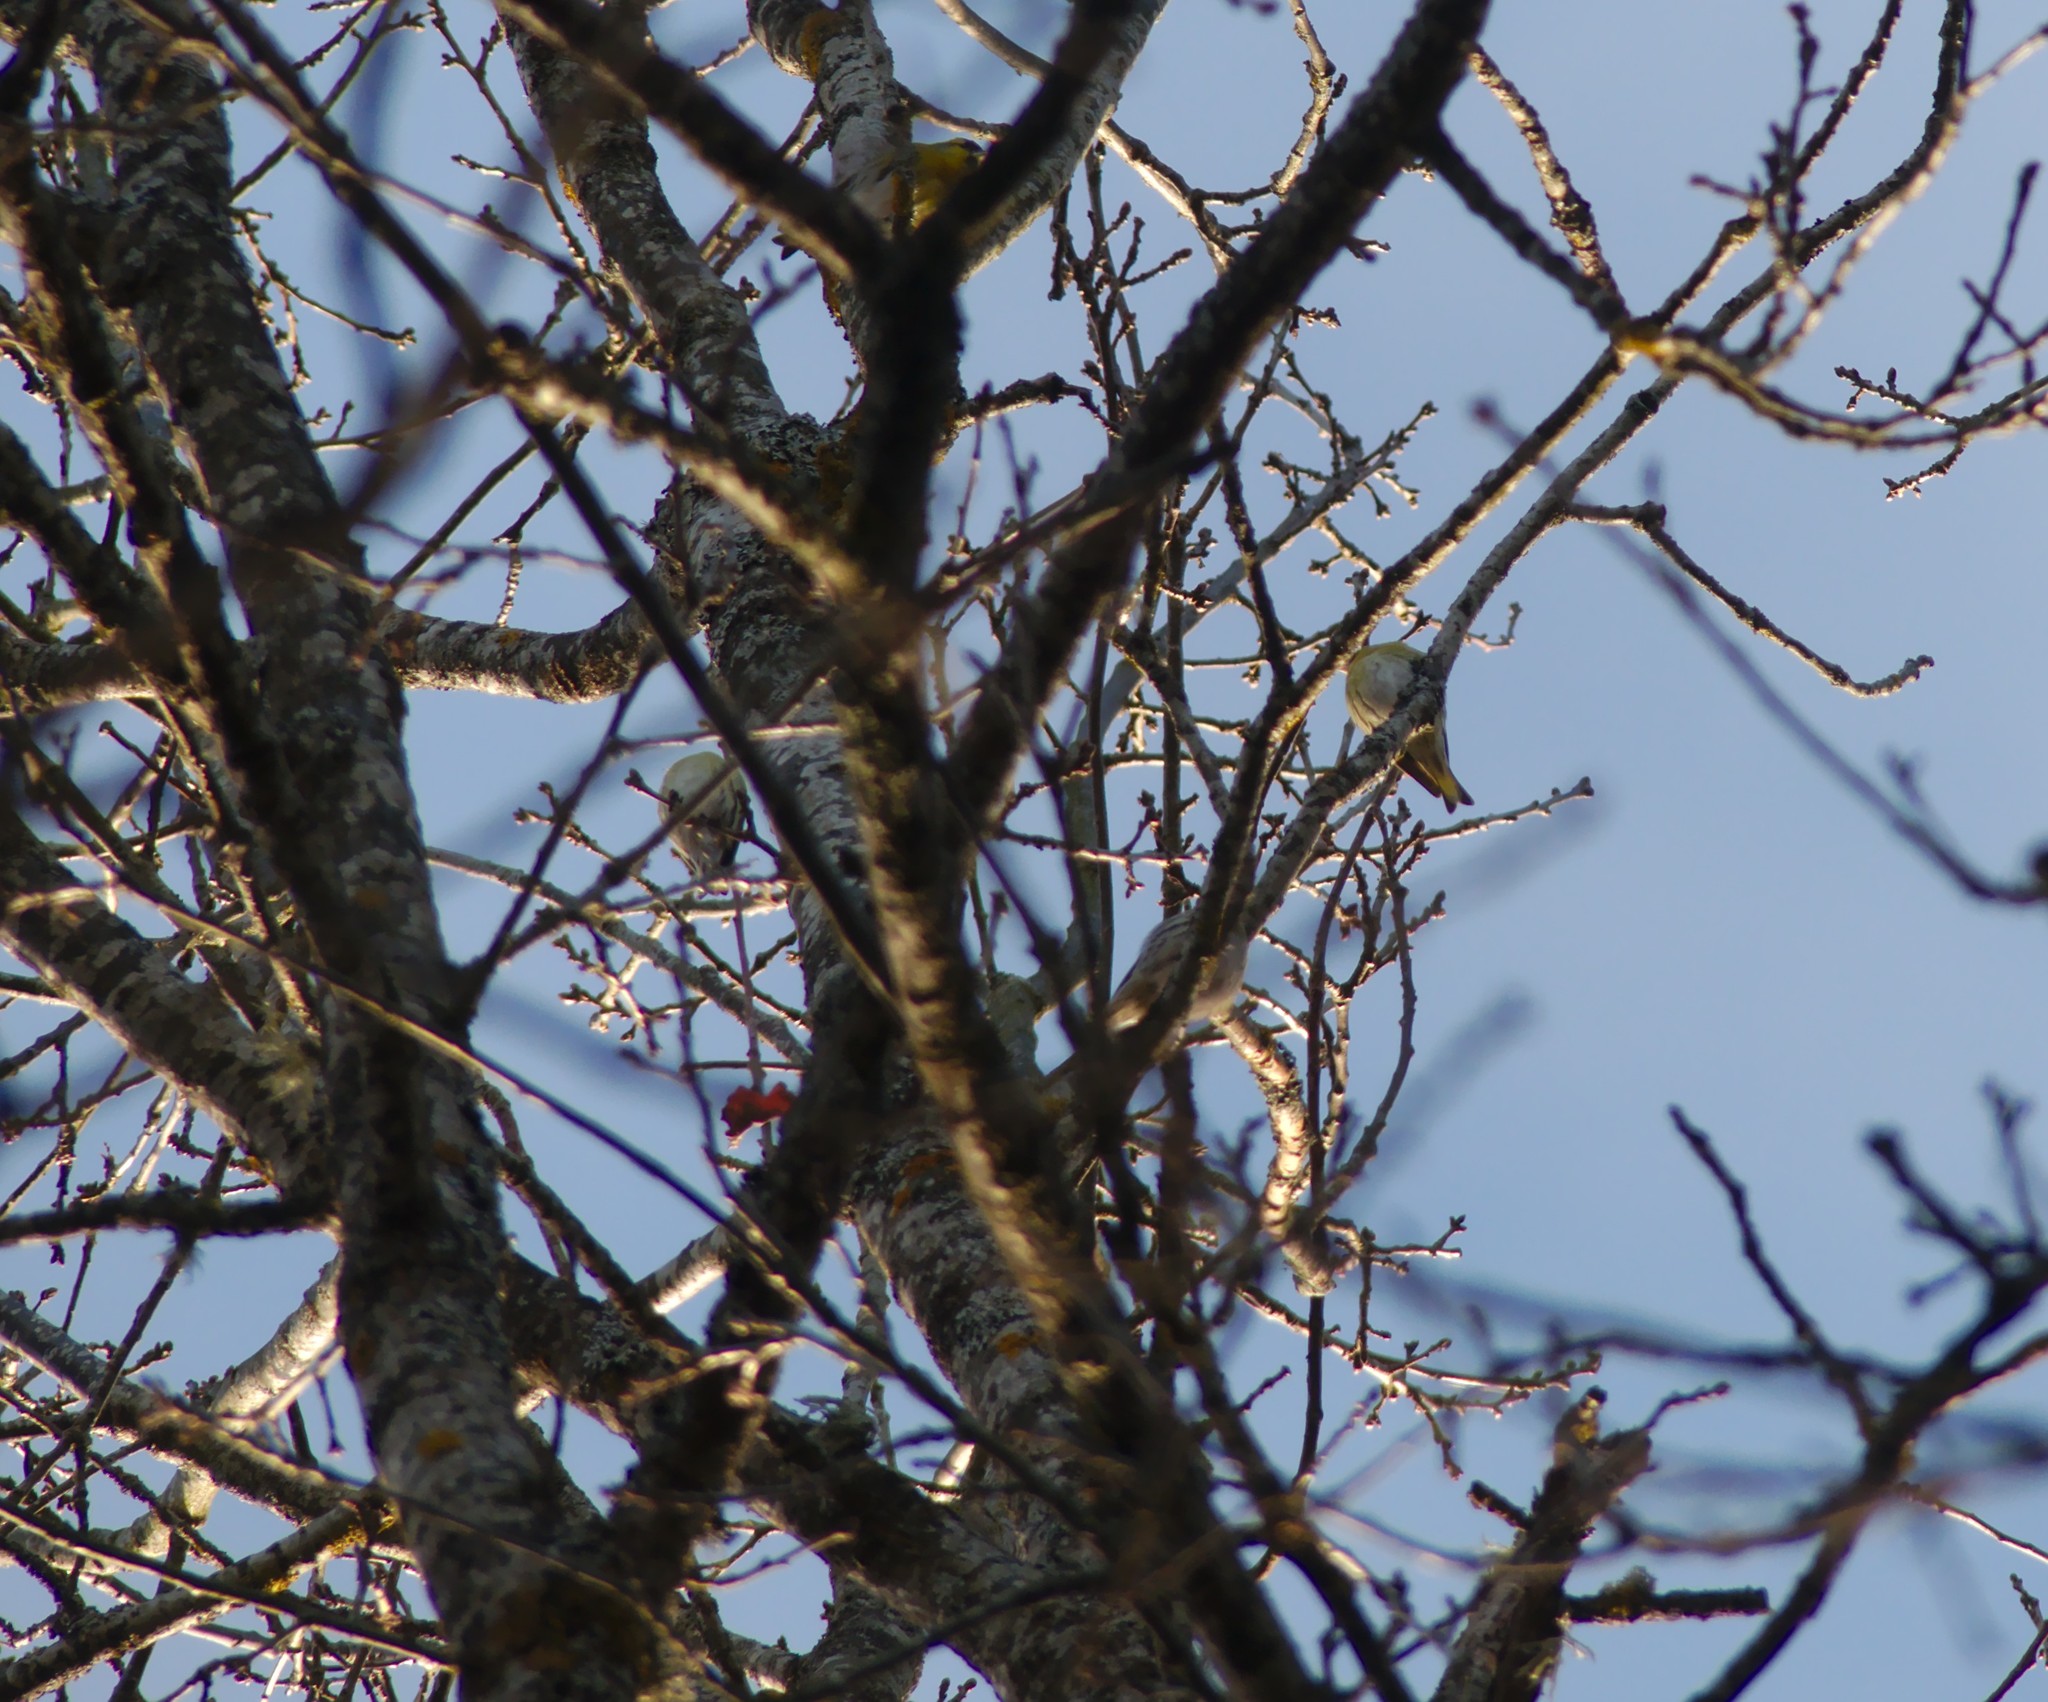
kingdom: Animalia
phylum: Chordata
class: Aves
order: Passeriformes
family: Fringillidae
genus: Spinus
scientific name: Spinus spinus
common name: Eurasian siskin
